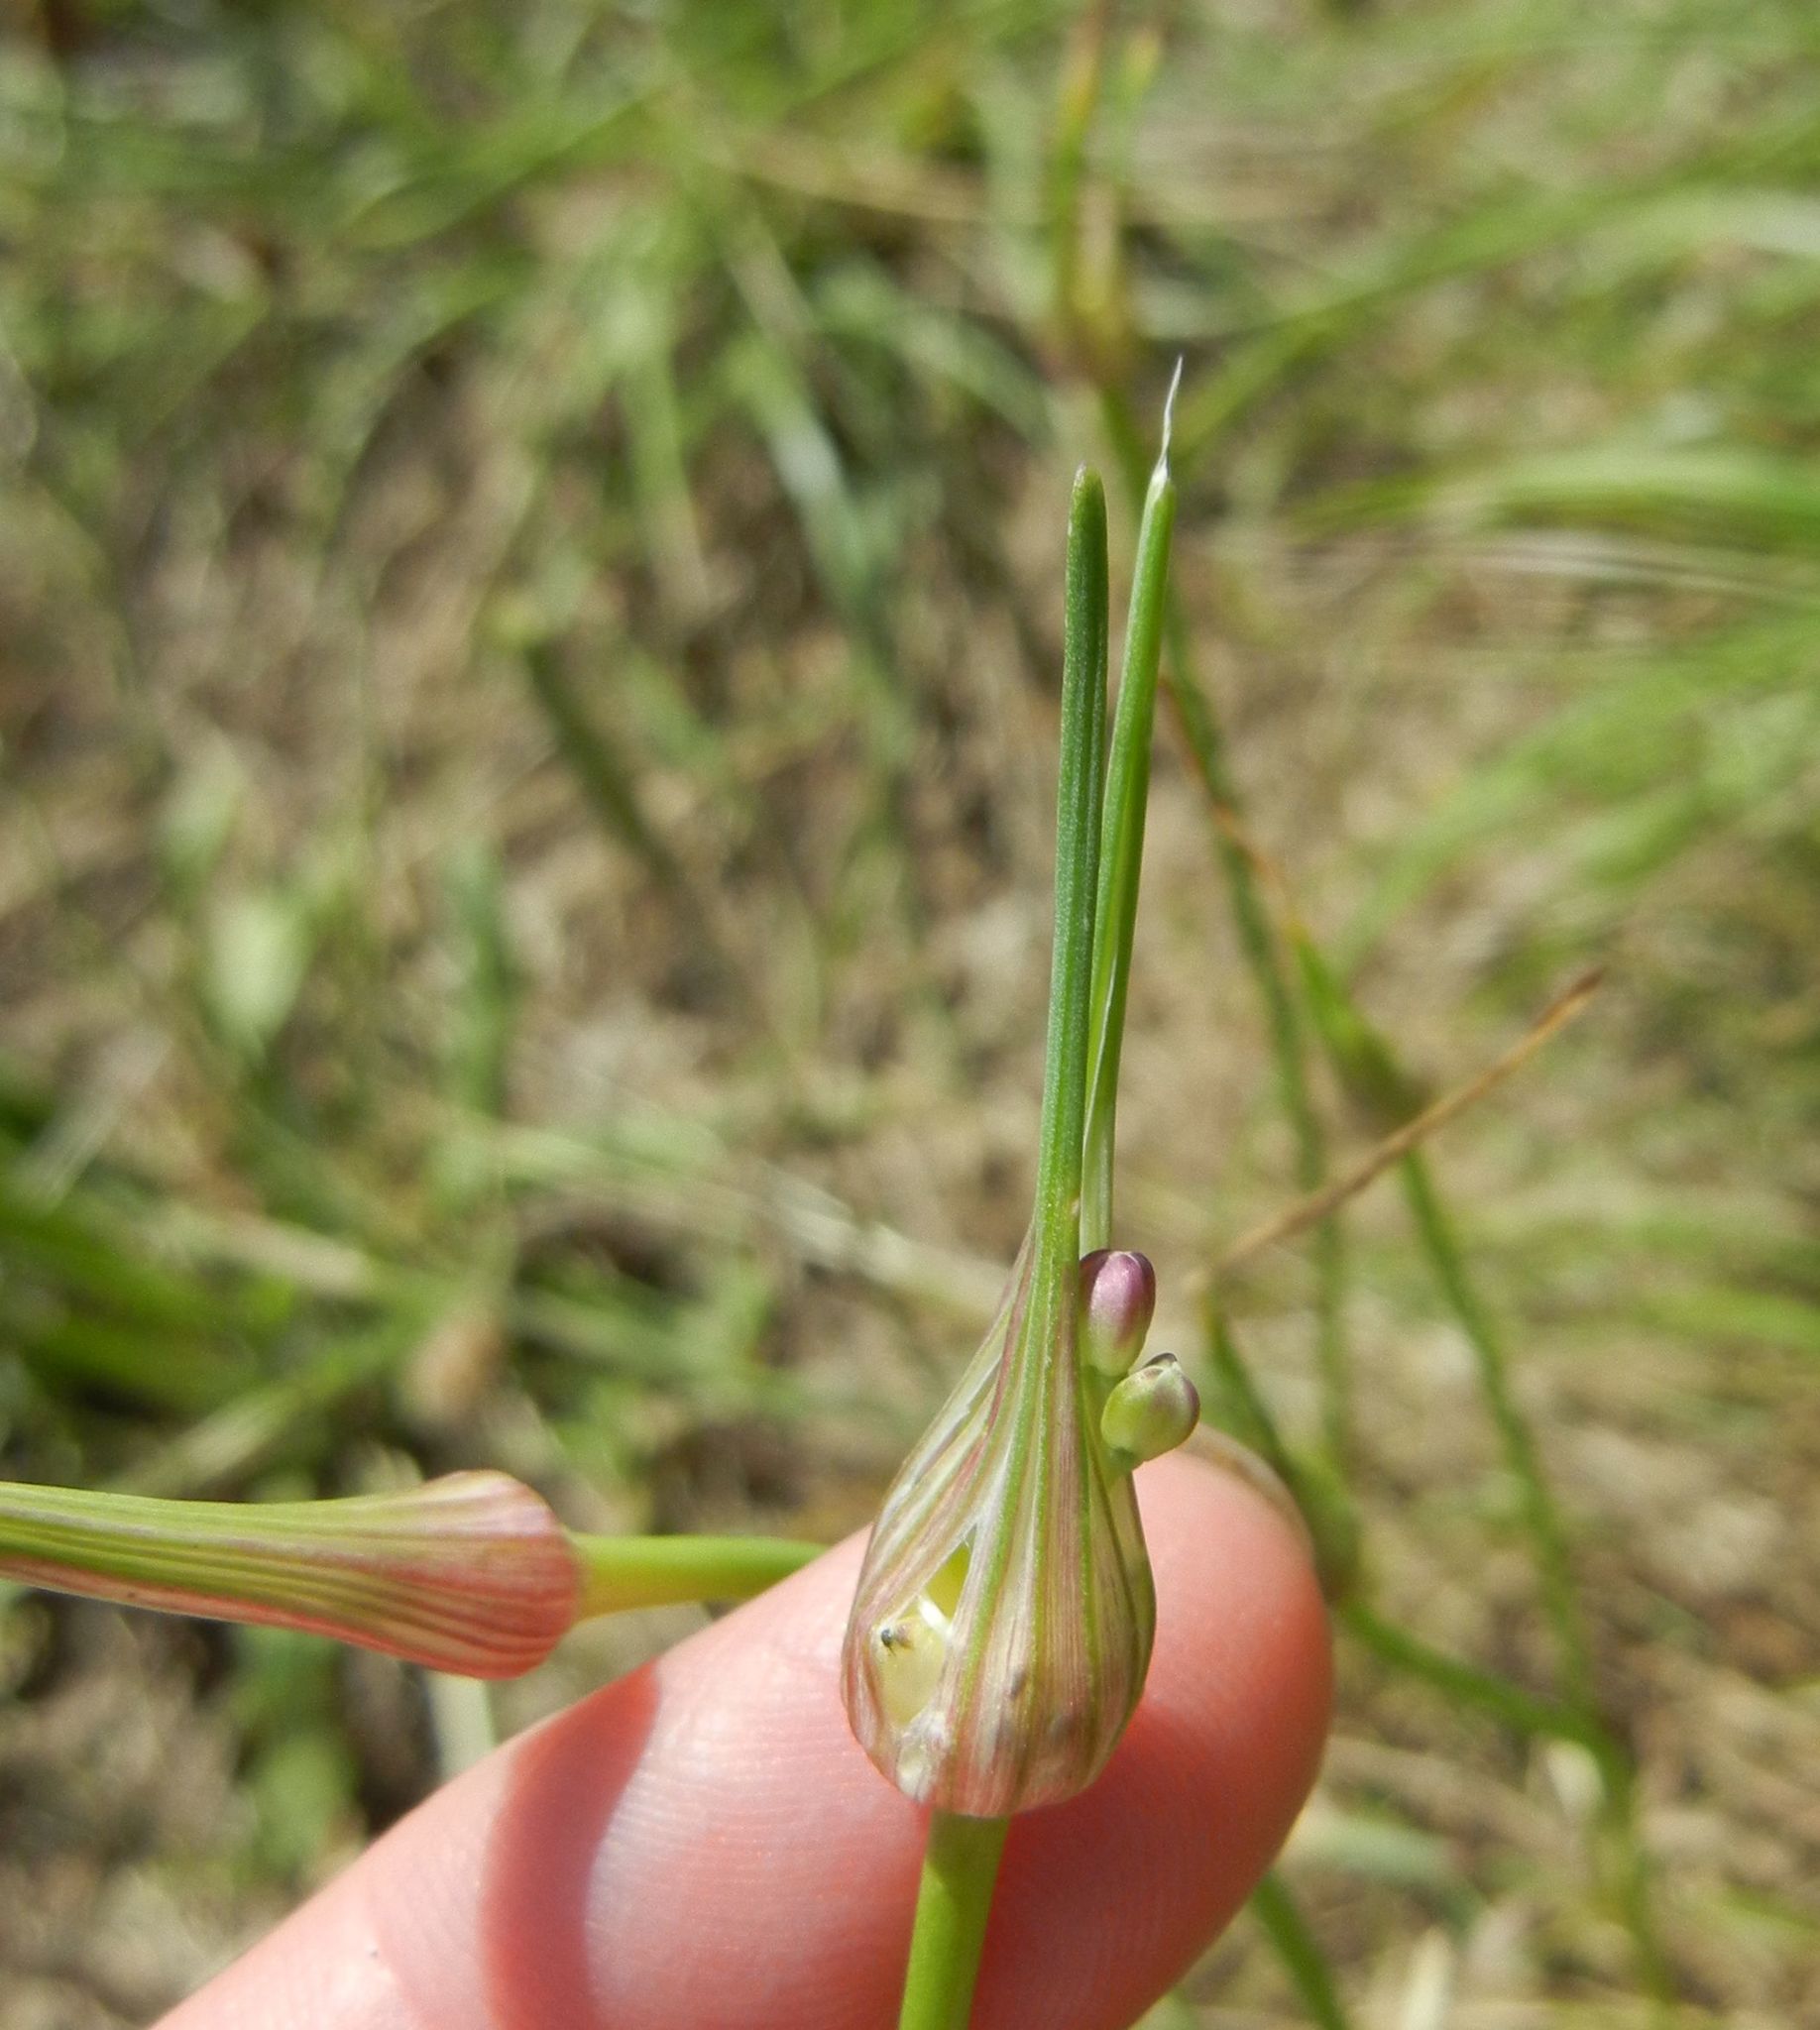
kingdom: Plantae
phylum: Tracheophyta
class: Liliopsida
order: Asparagales
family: Amaryllidaceae
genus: Allium
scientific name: Allium oleraceum
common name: Field garlic
